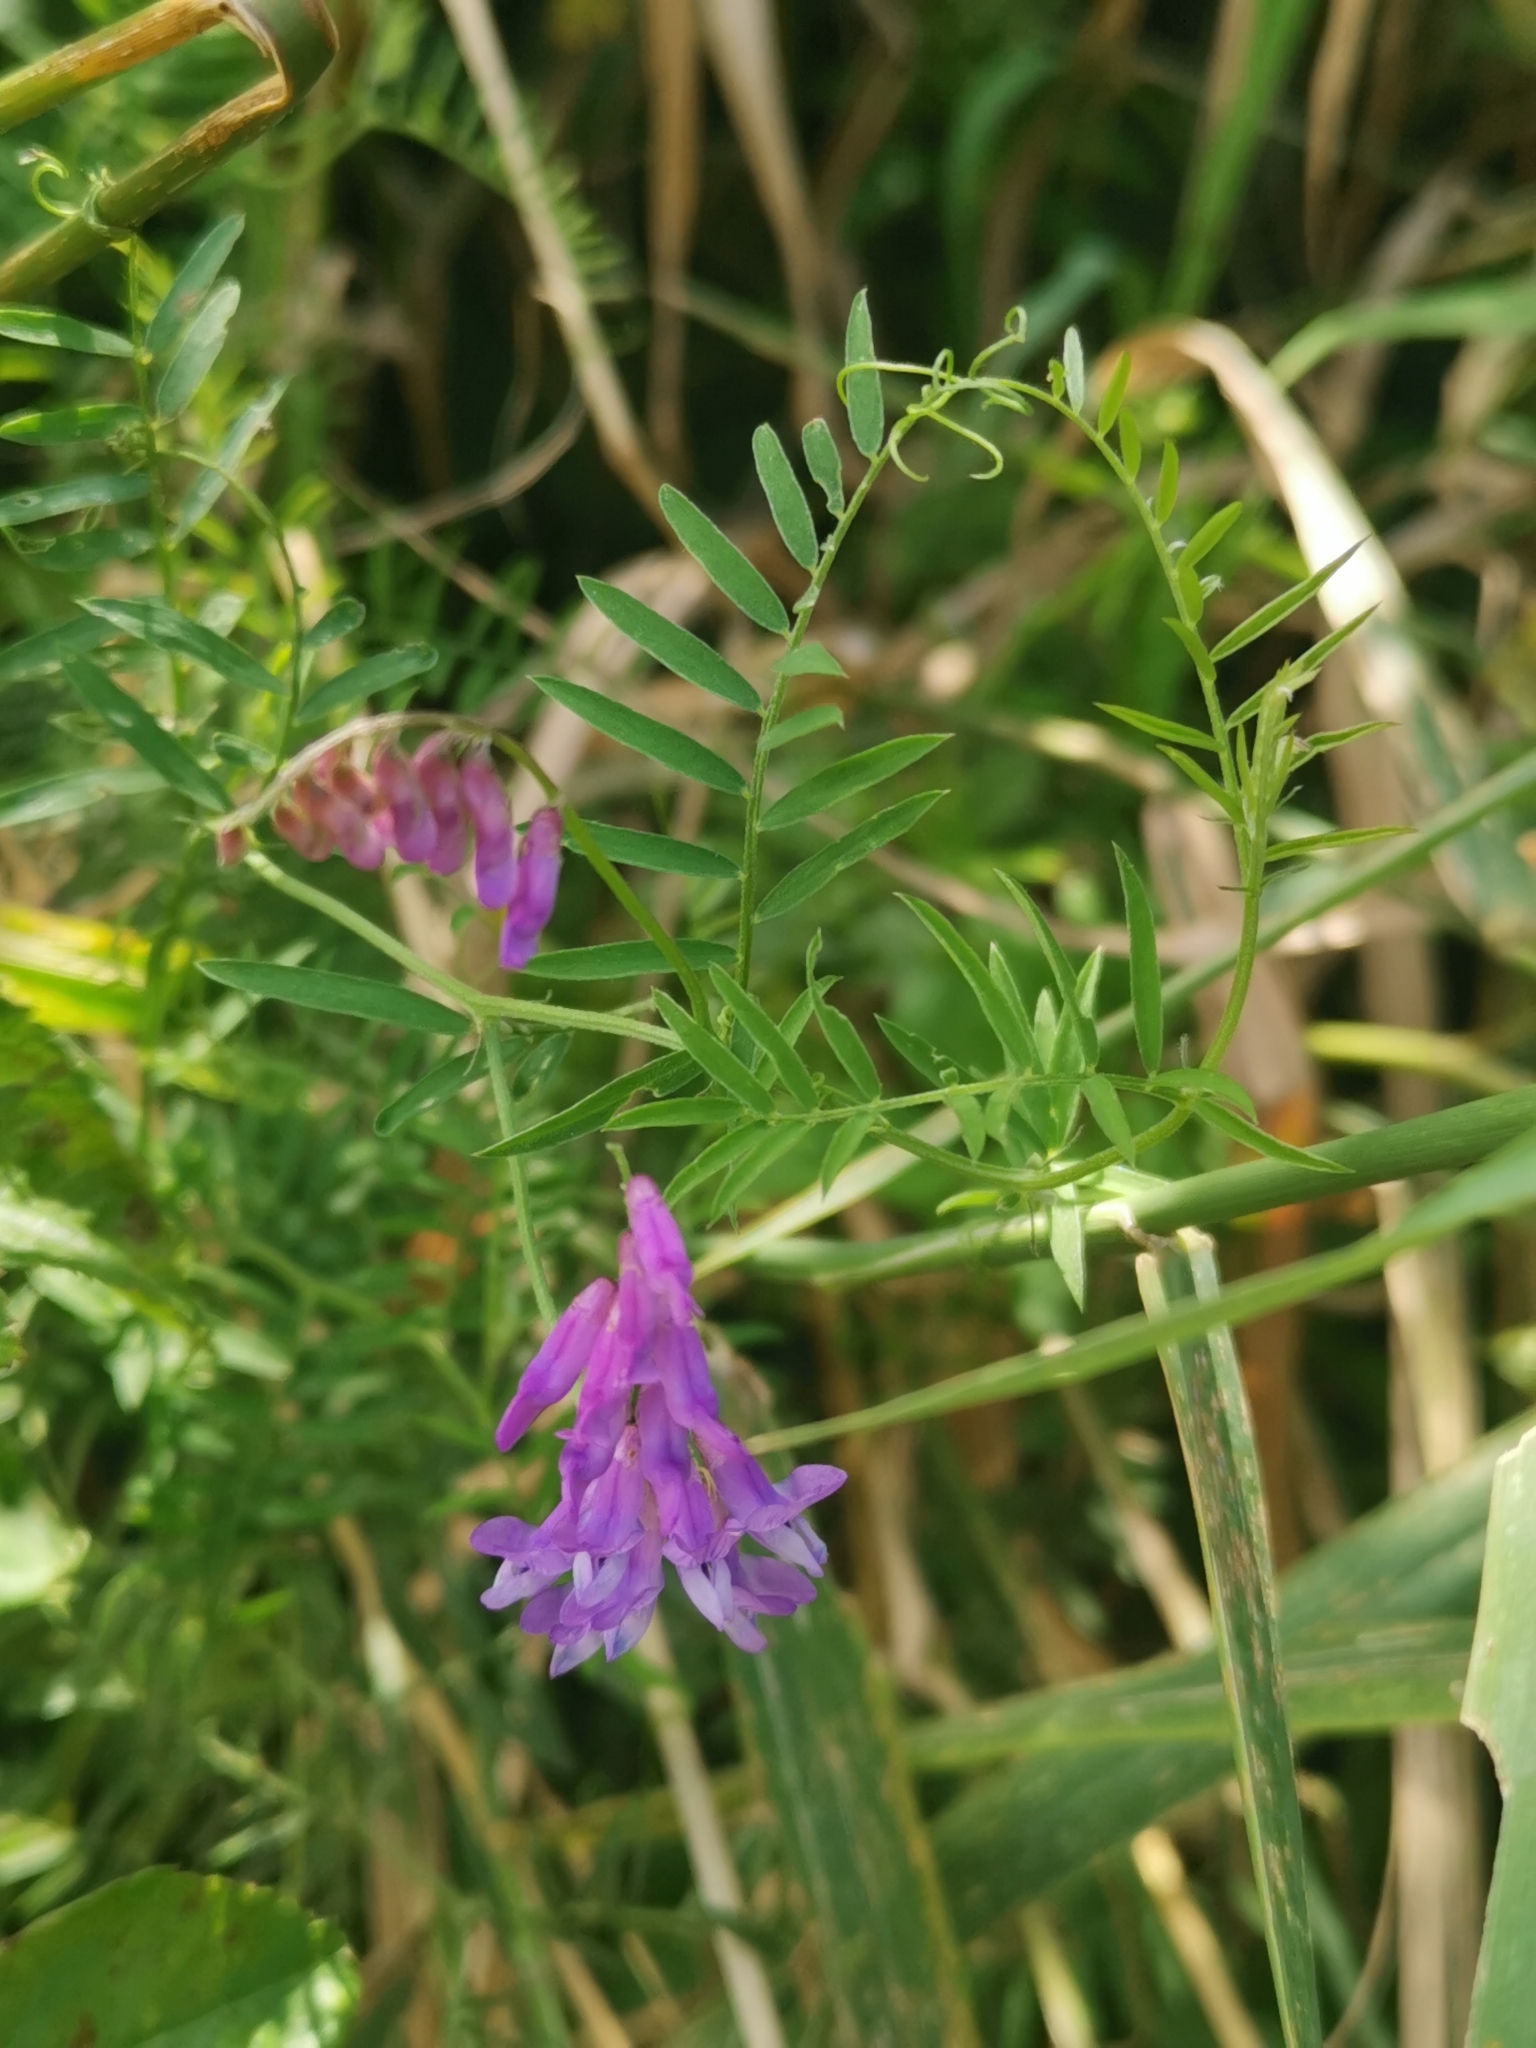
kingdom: Plantae
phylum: Tracheophyta
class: Magnoliopsida
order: Fabales
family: Fabaceae
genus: Vicia
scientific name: Vicia cracca
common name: Bird vetch
